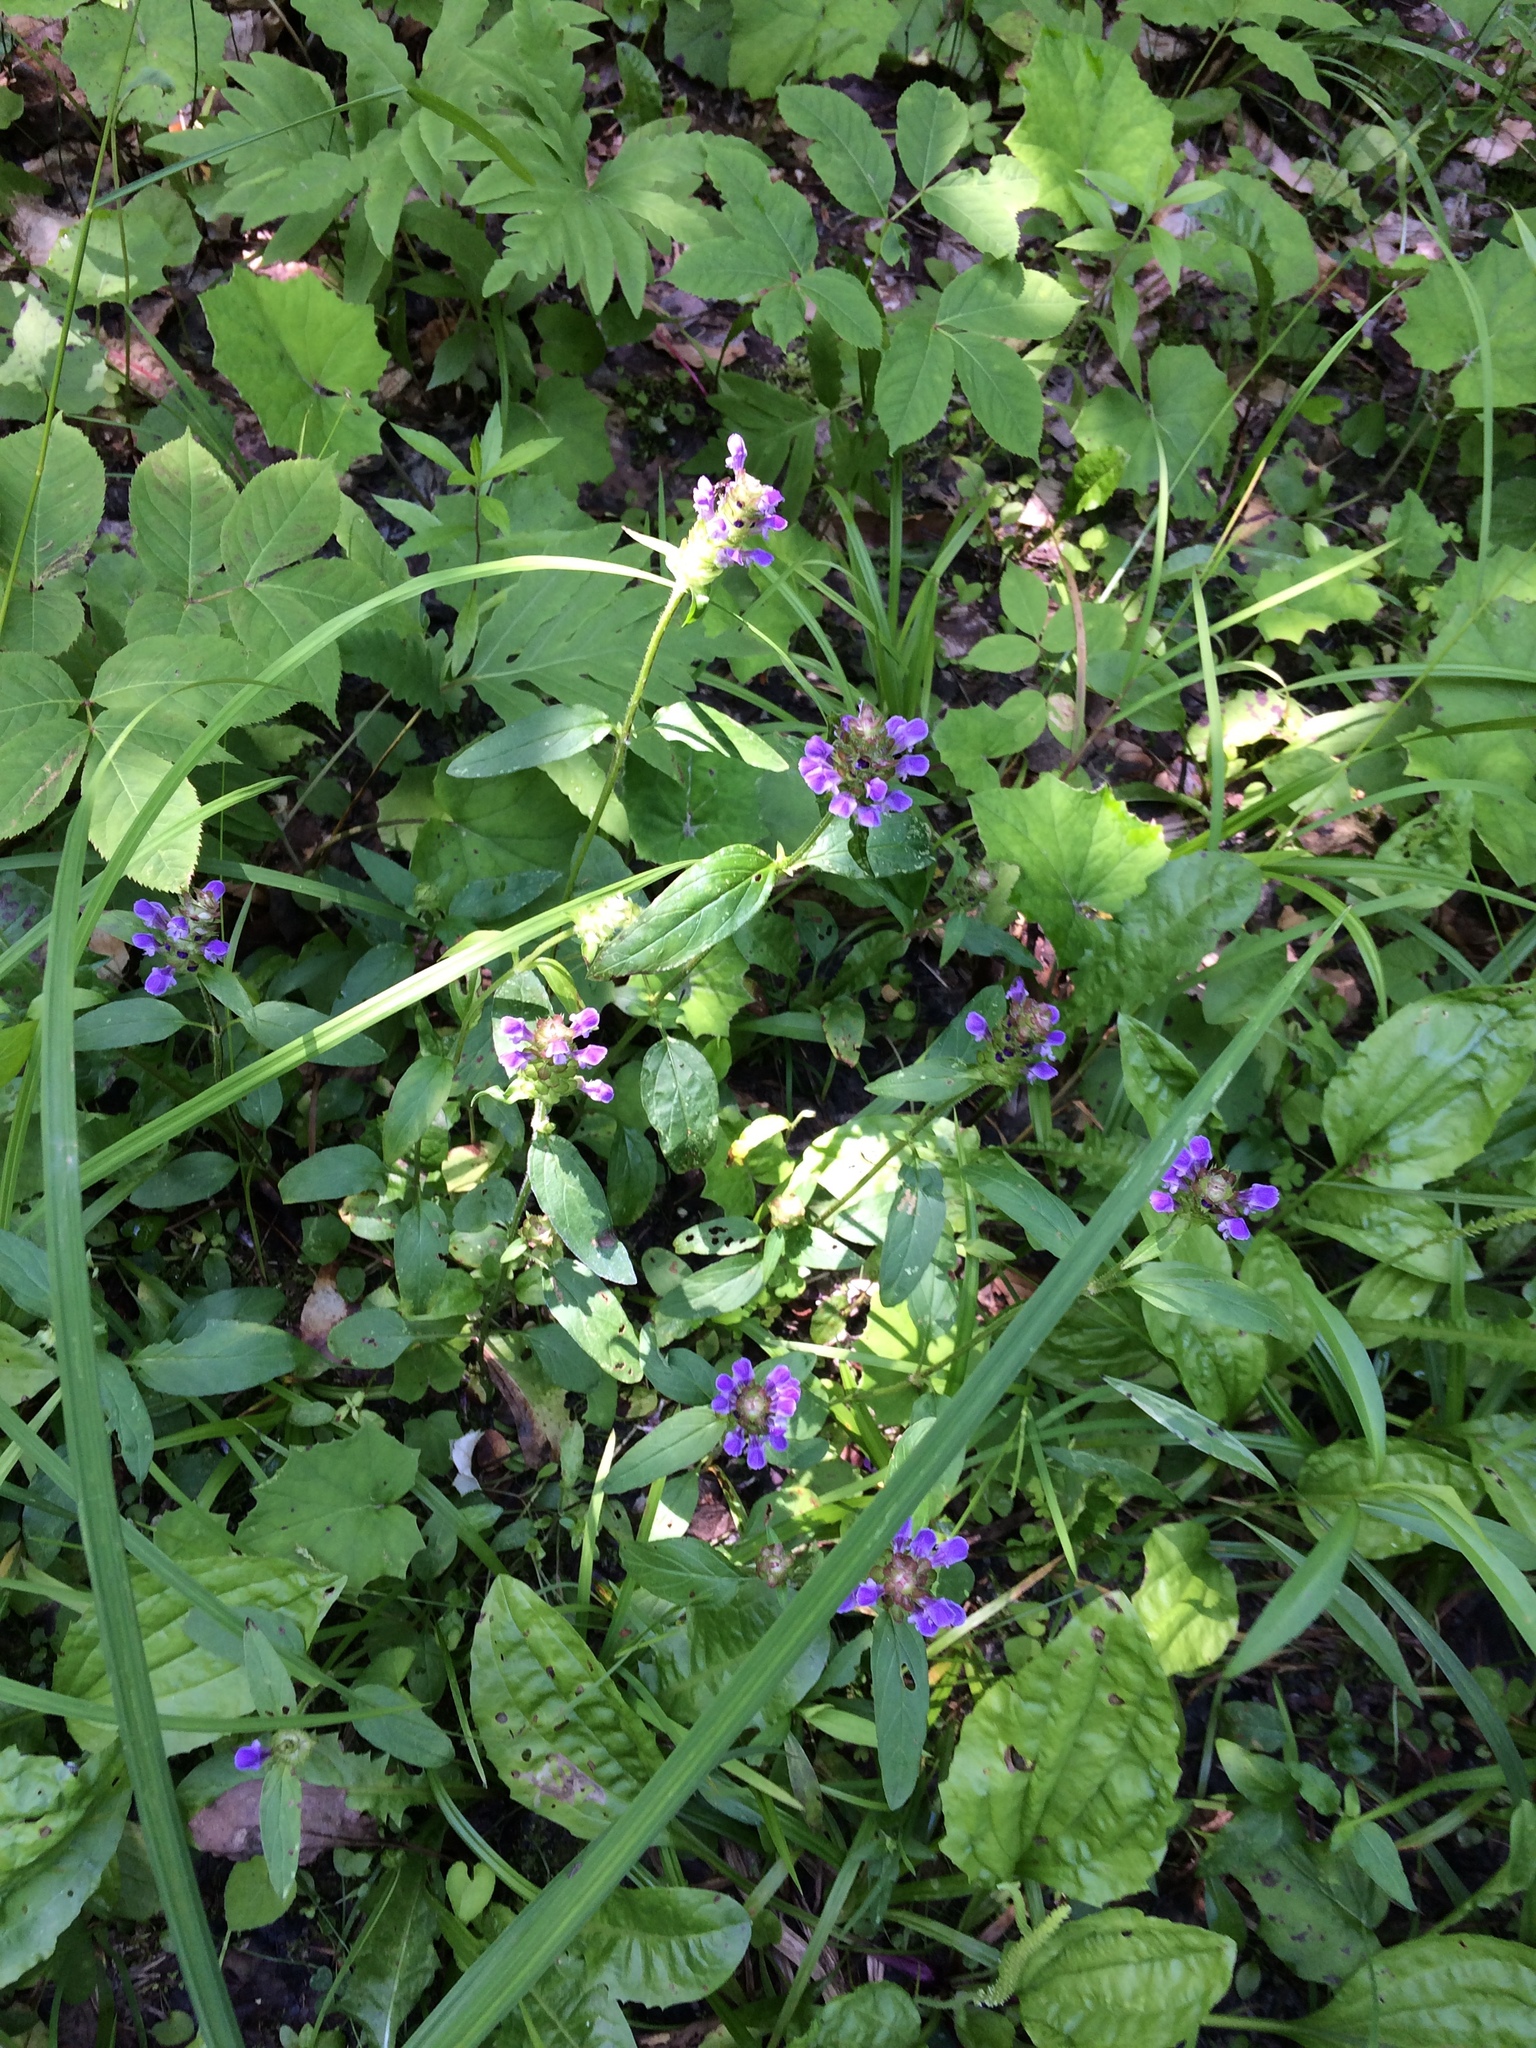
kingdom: Plantae
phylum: Tracheophyta
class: Magnoliopsida
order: Lamiales
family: Lamiaceae
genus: Prunella
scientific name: Prunella vulgaris
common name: Heal-all
